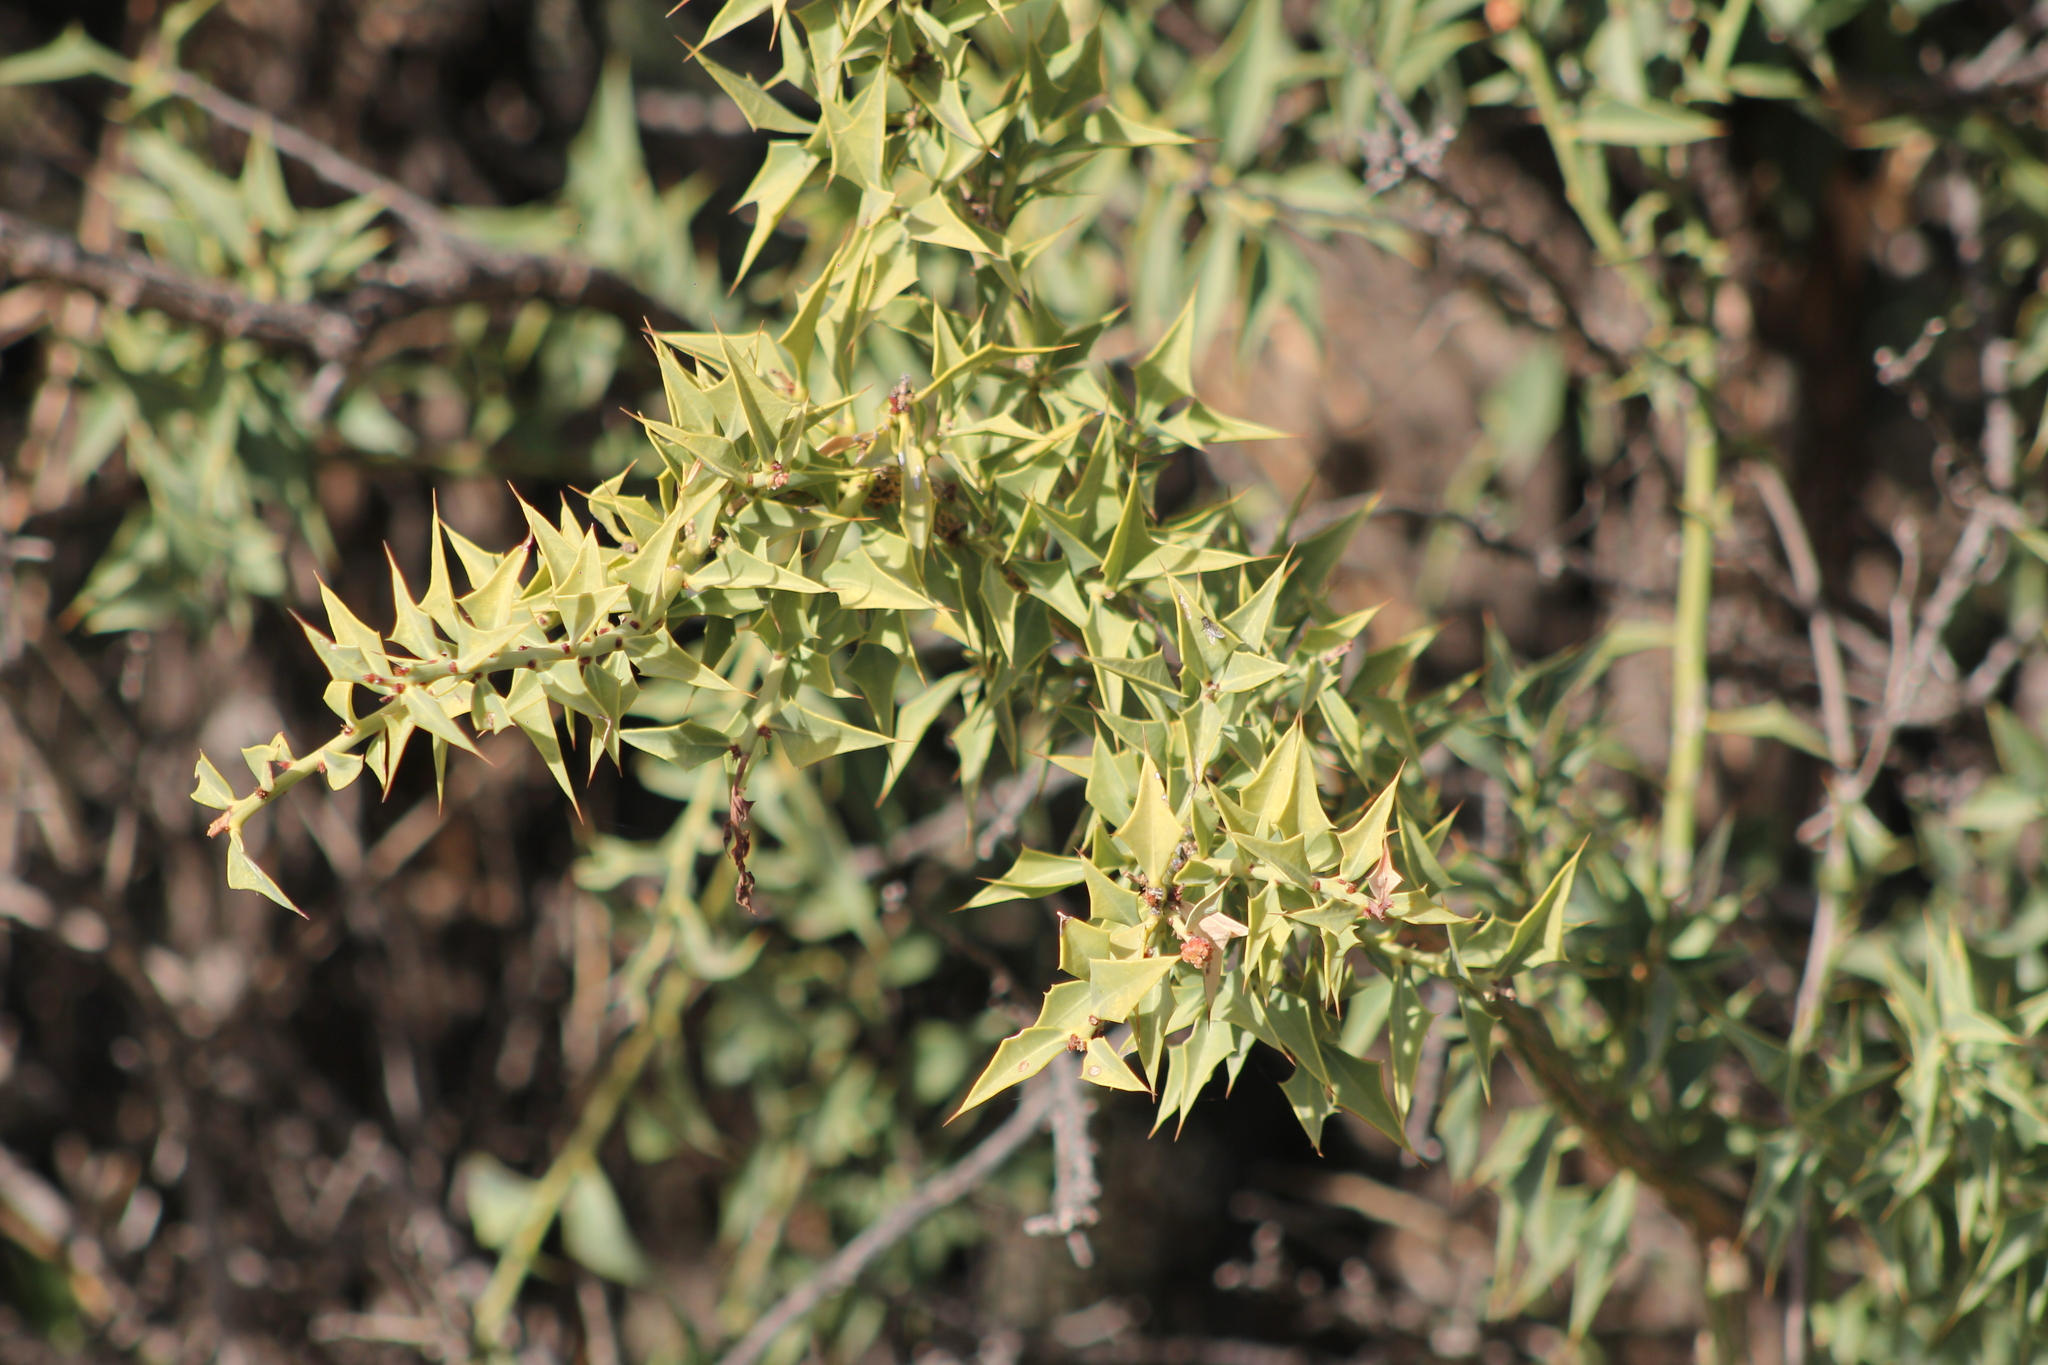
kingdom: Plantae
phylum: Tracheophyta
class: Magnoliopsida
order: Santalales
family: Cervantesiaceae
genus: Jodina
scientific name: Jodina rhombifolia
